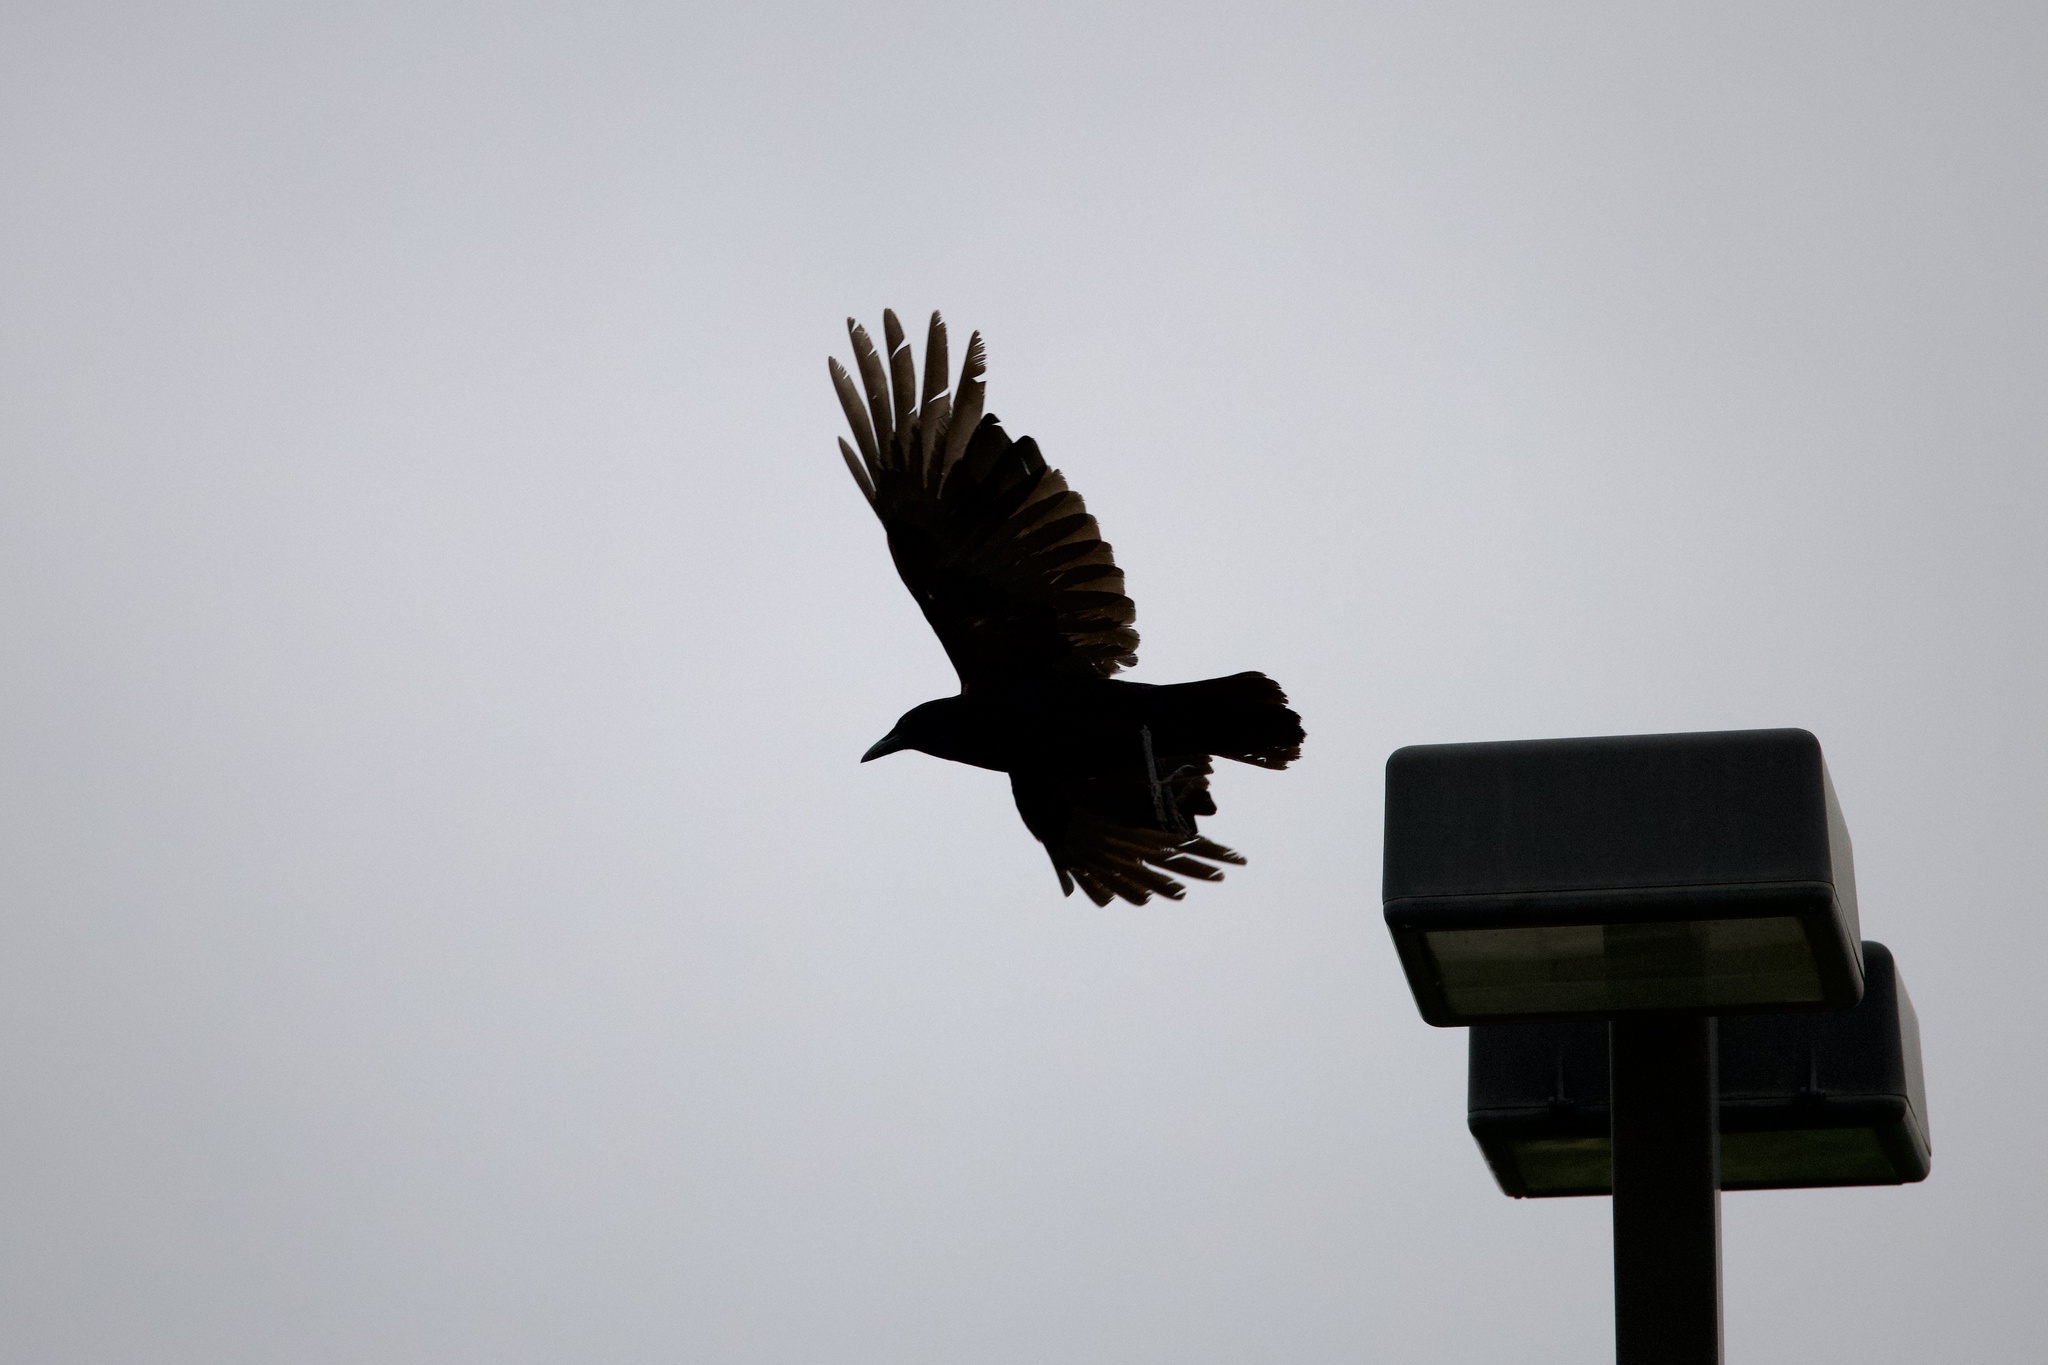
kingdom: Animalia
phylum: Chordata
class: Aves
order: Passeriformes
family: Corvidae
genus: Corvus
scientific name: Corvus brachyrhynchos
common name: American crow
